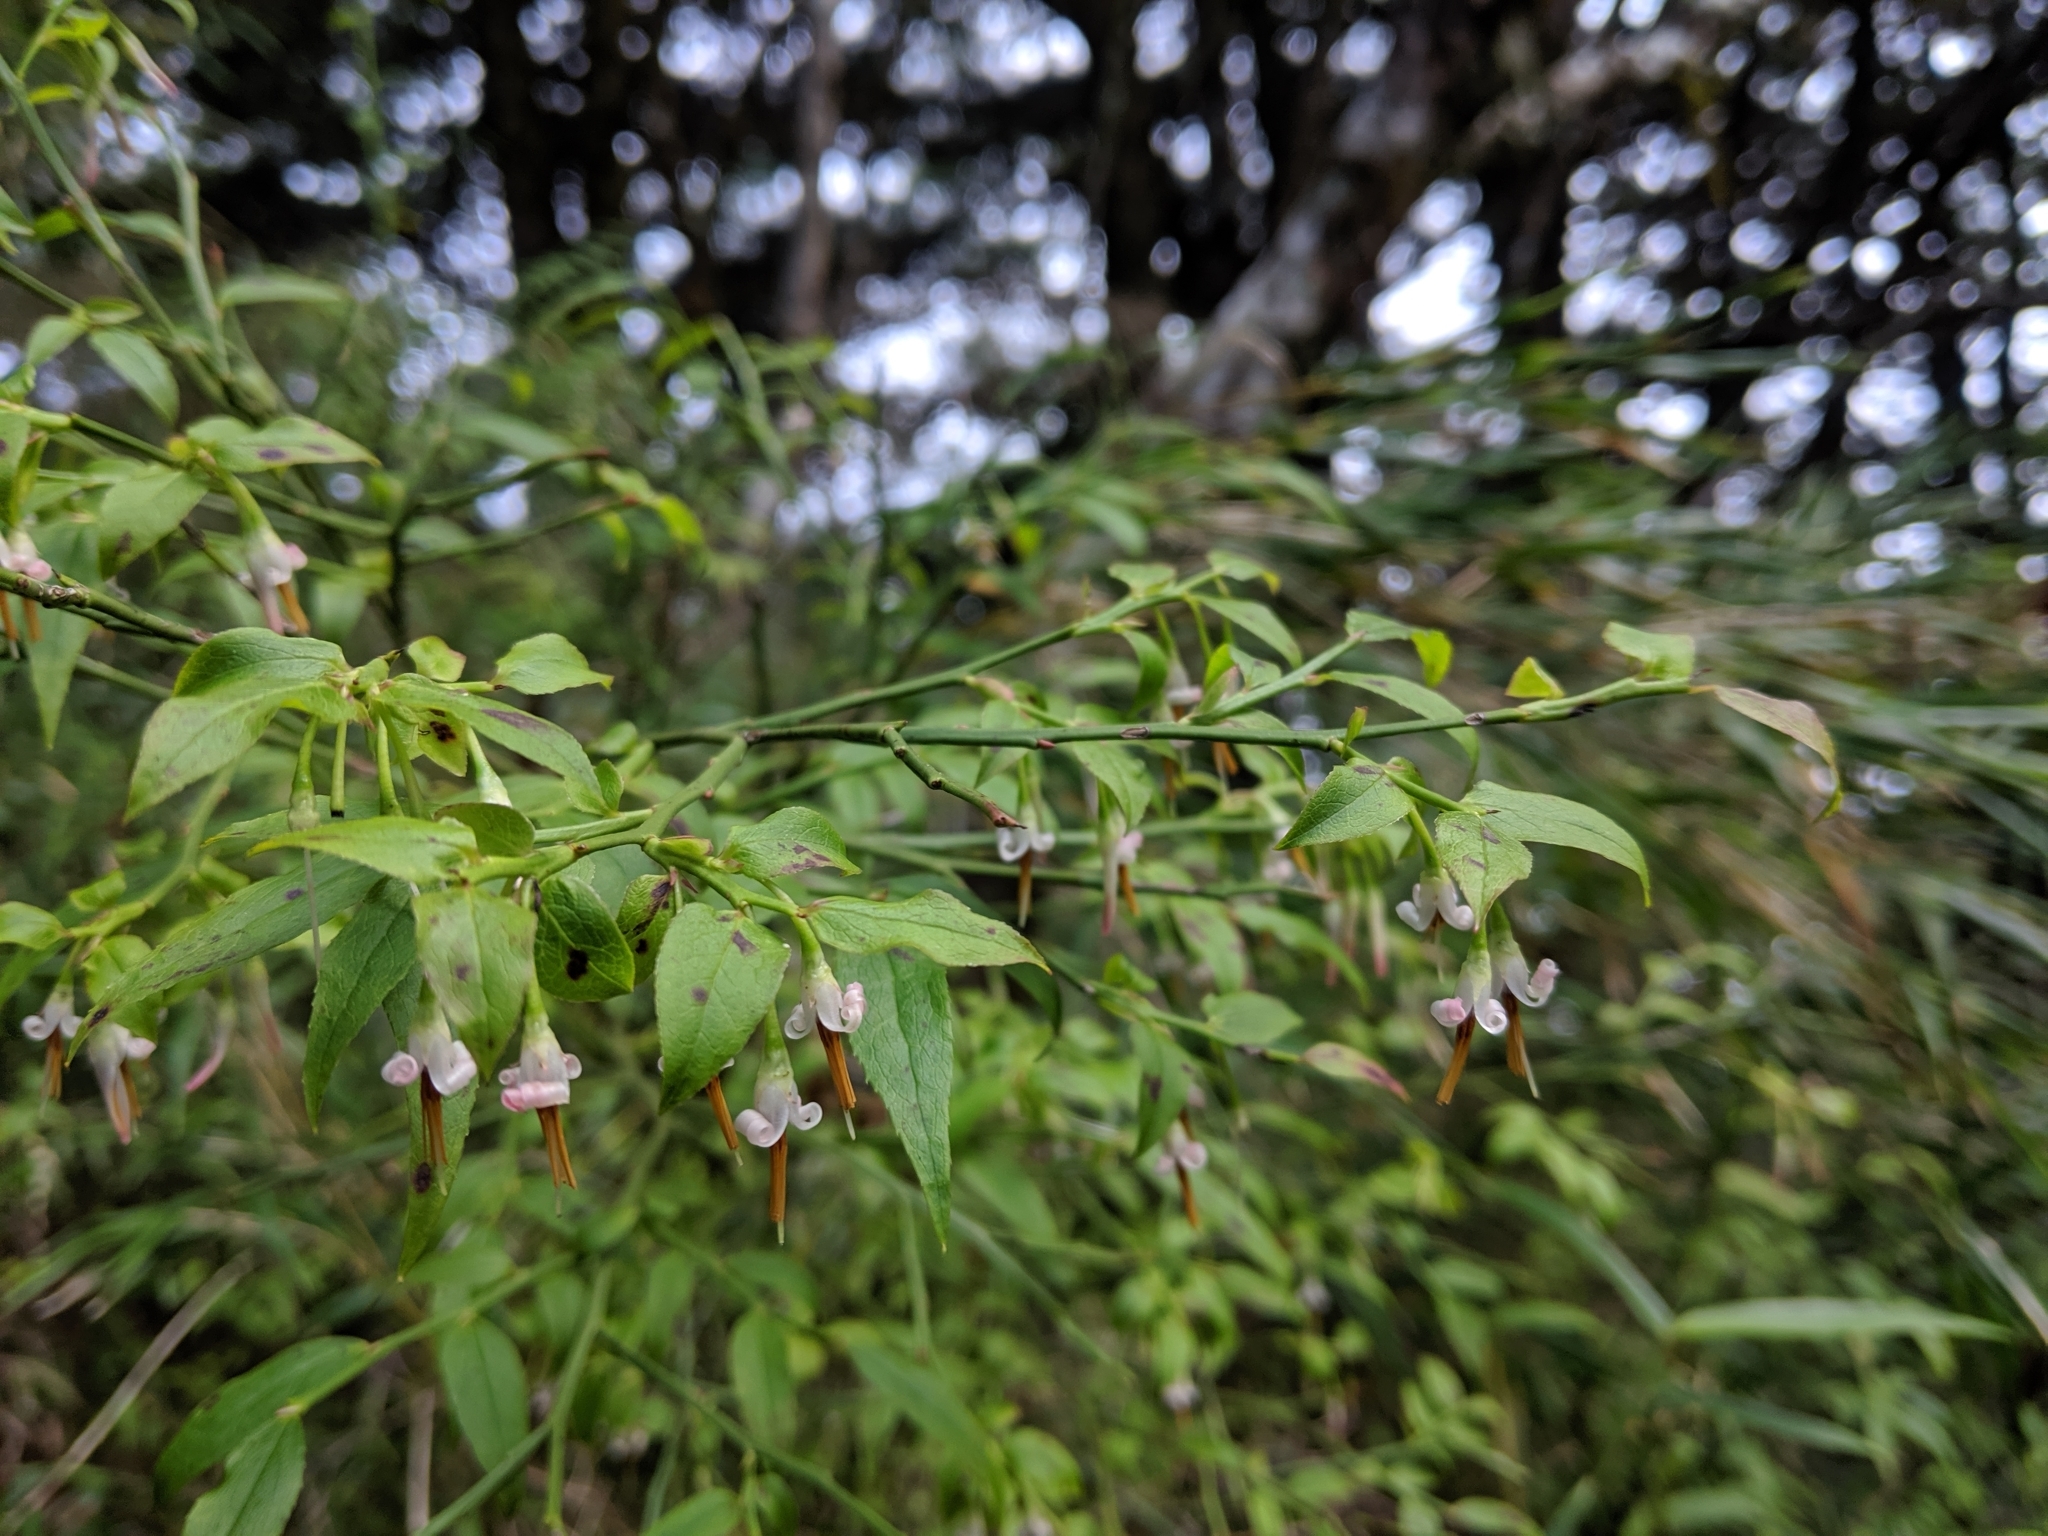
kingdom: Plantae
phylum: Tracheophyta
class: Magnoliopsida
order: Ericales
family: Ericaceae
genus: Vaccinium
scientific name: Vaccinium japonicum
